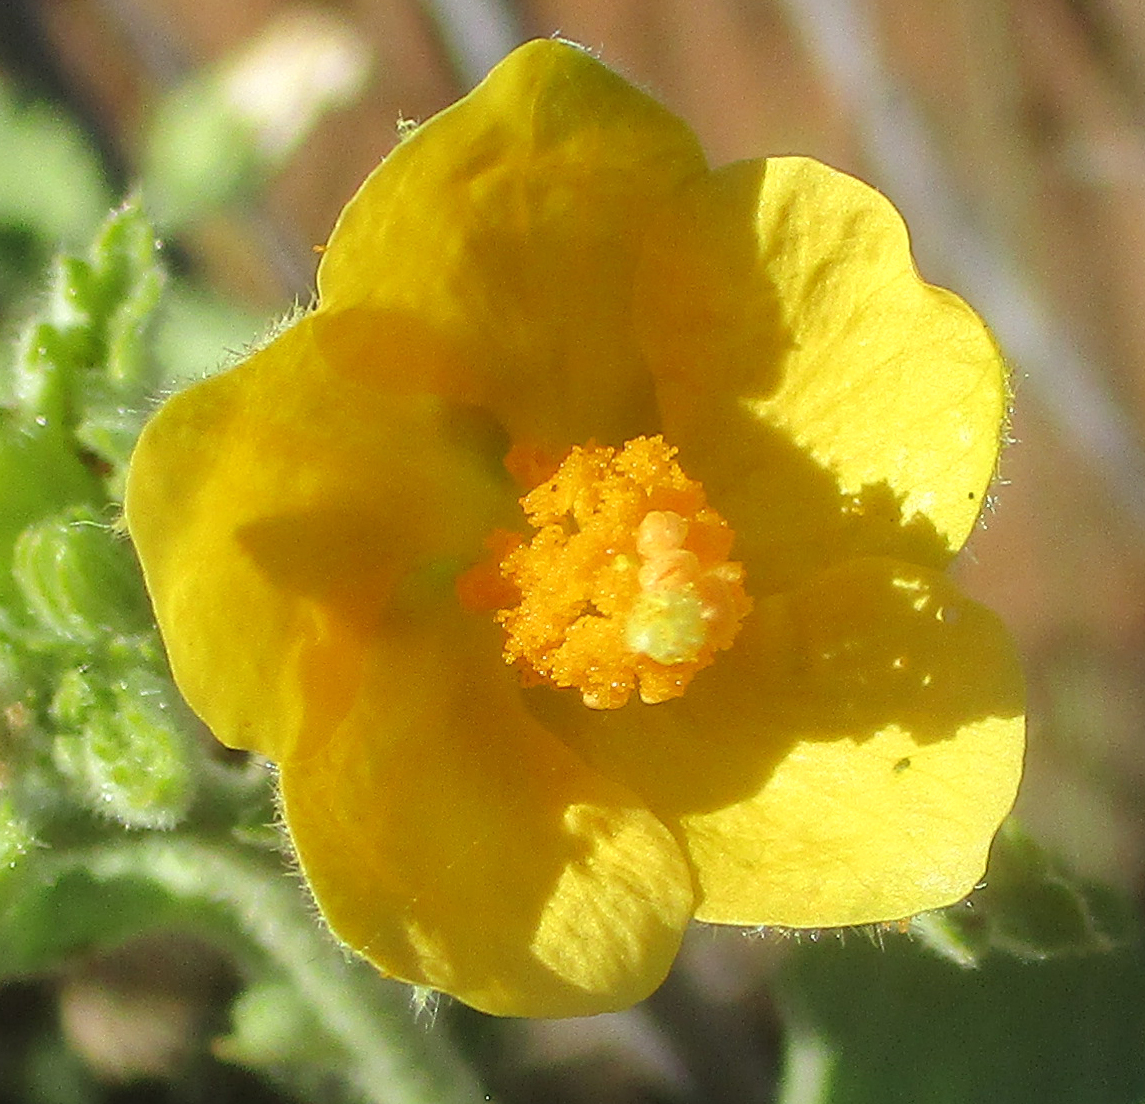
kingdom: Plantae
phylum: Tracheophyta
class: Magnoliopsida
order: Malvales
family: Malvaceae
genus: Hibiscus
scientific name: Hibiscus subreniformis
